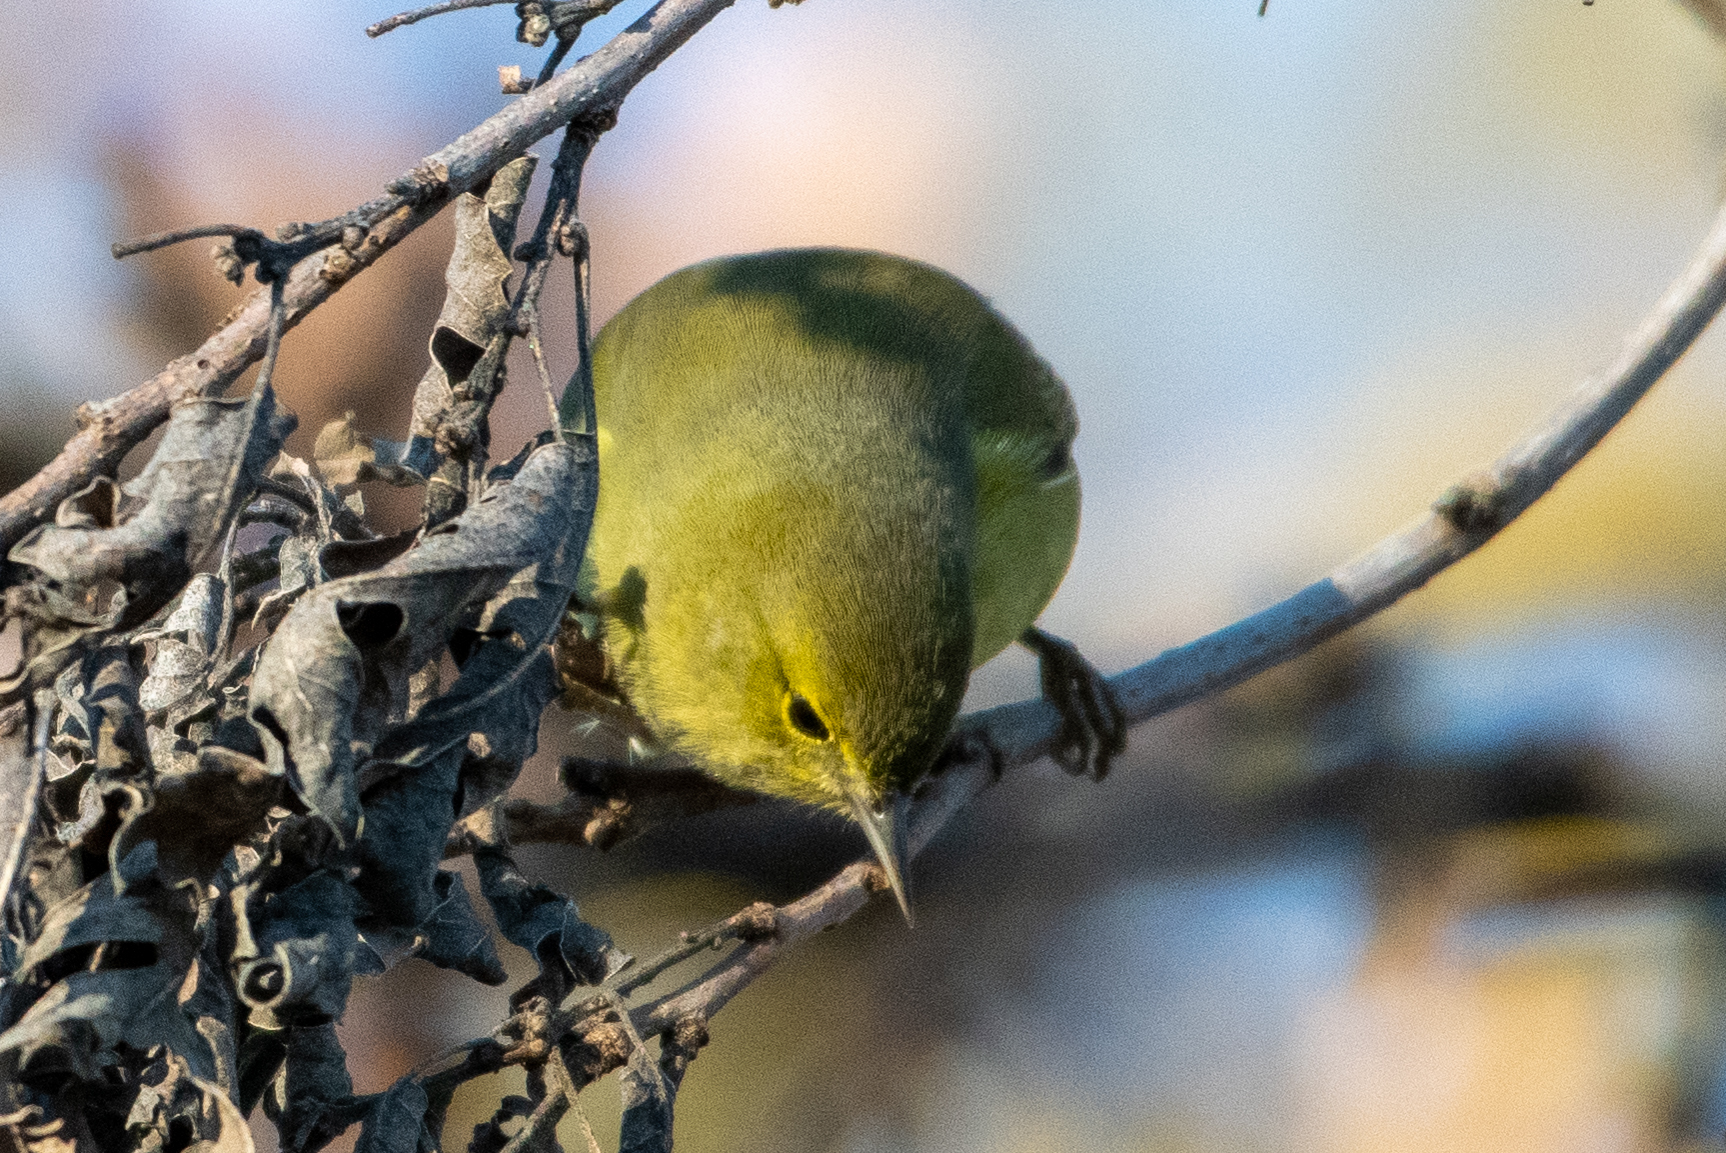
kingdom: Animalia
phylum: Chordata
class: Aves
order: Passeriformes
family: Parulidae
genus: Leiothlypis
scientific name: Leiothlypis celata
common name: Orange-crowned warbler
